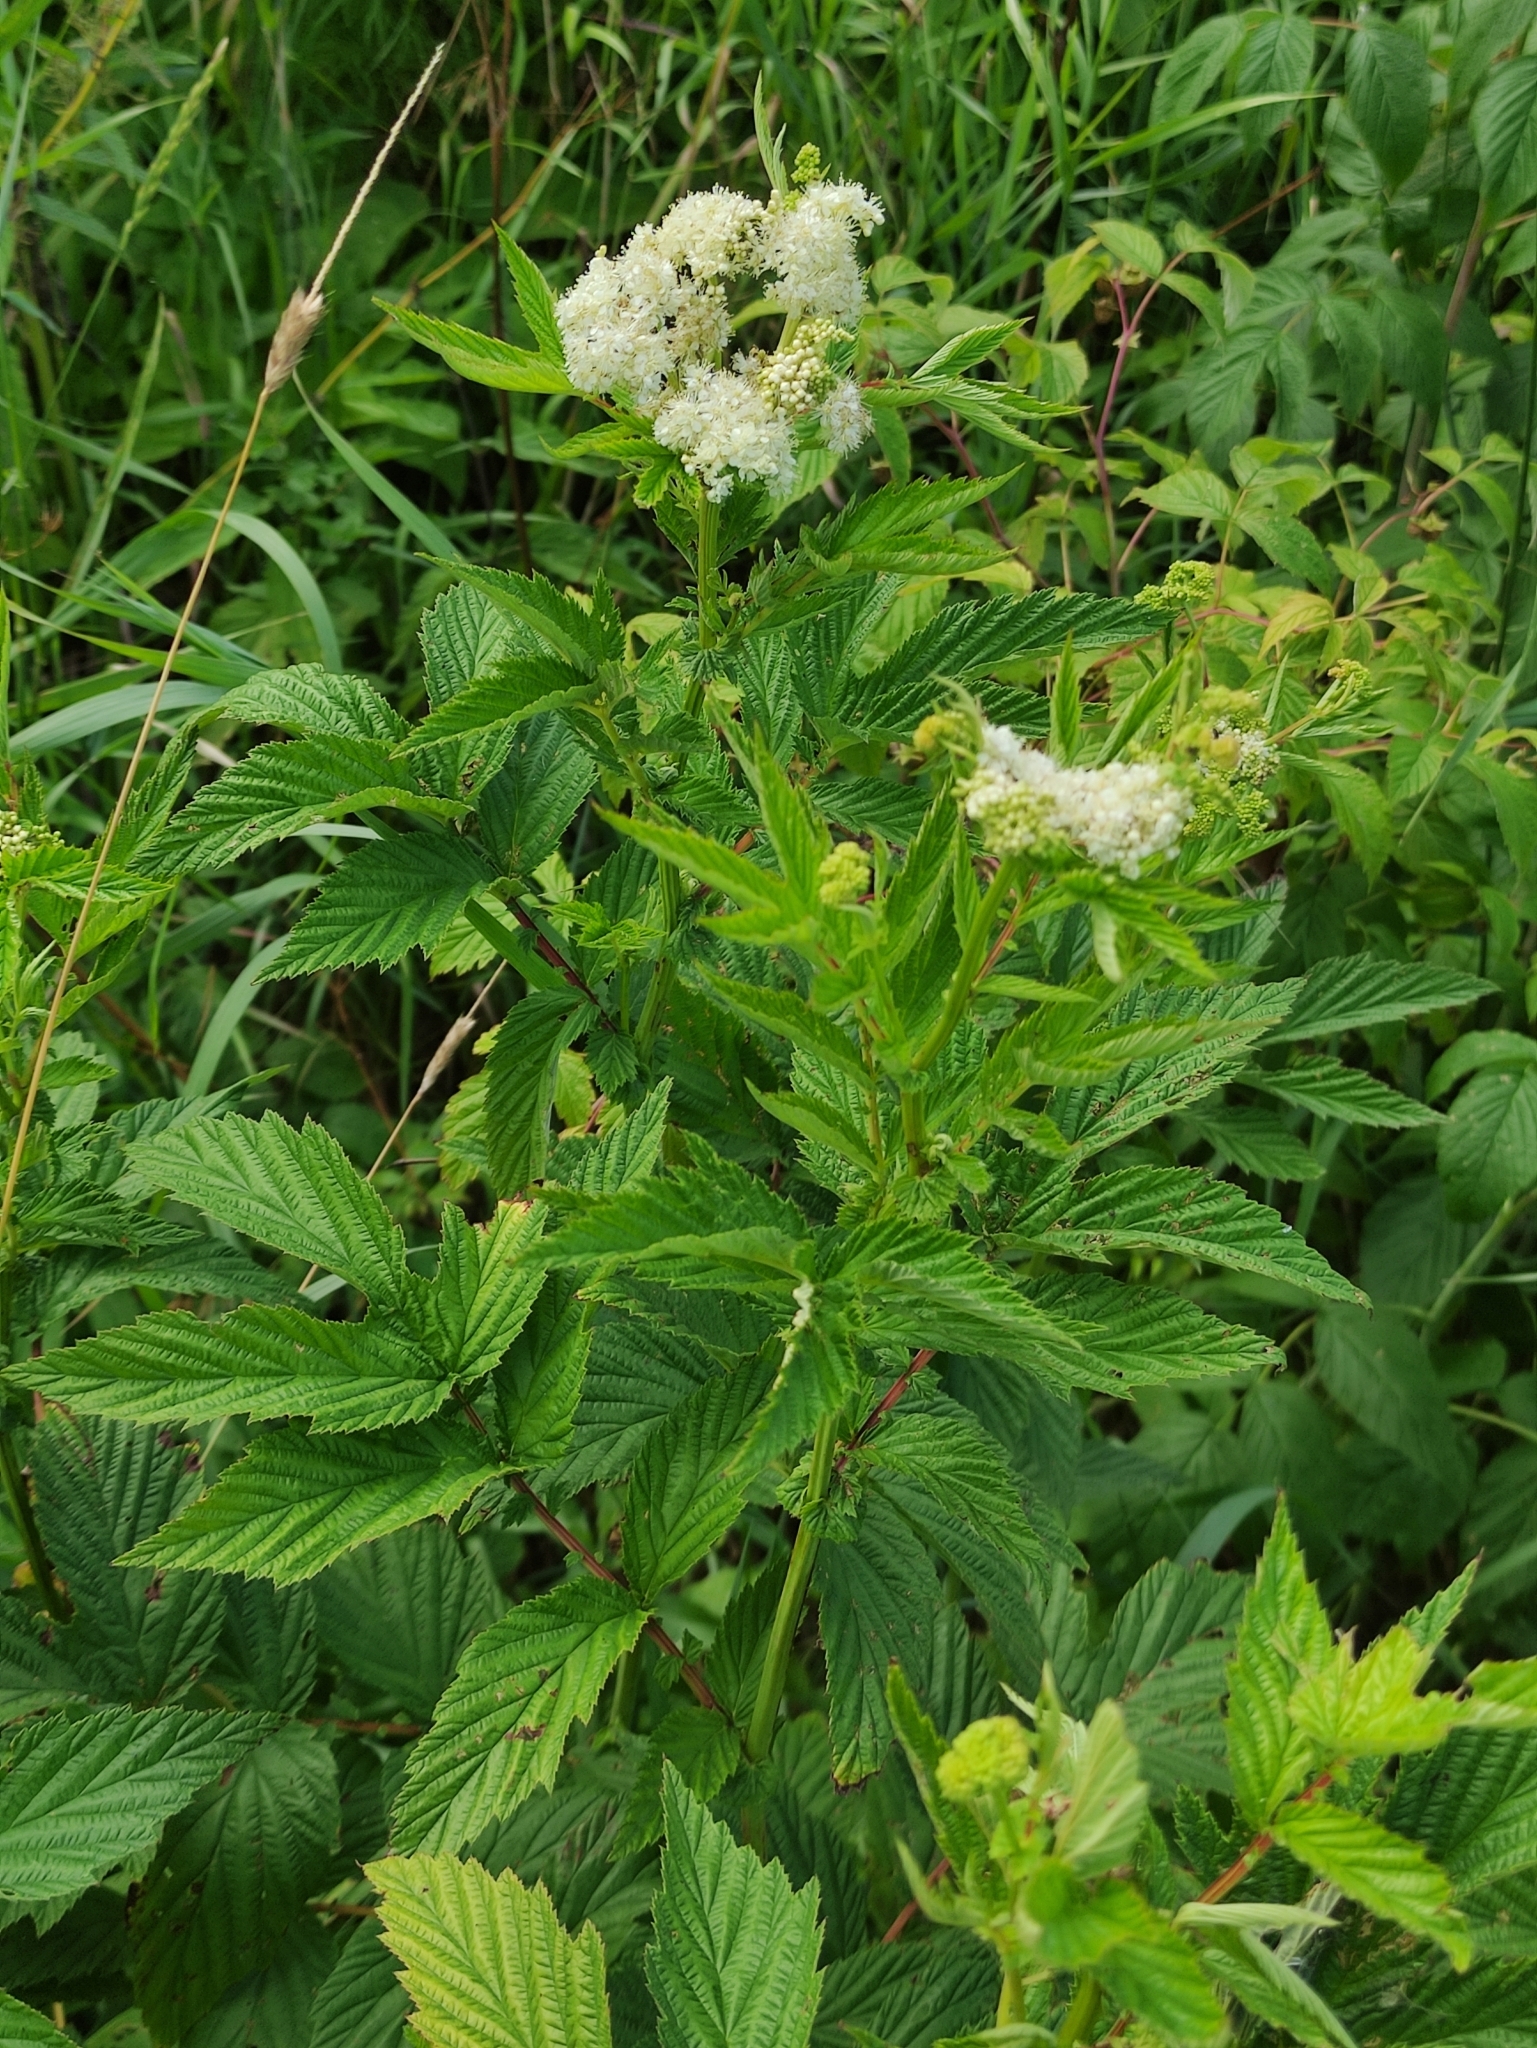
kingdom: Plantae
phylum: Tracheophyta
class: Magnoliopsida
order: Rosales
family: Rosaceae
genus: Filipendula
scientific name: Filipendula ulmaria
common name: Meadowsweet
